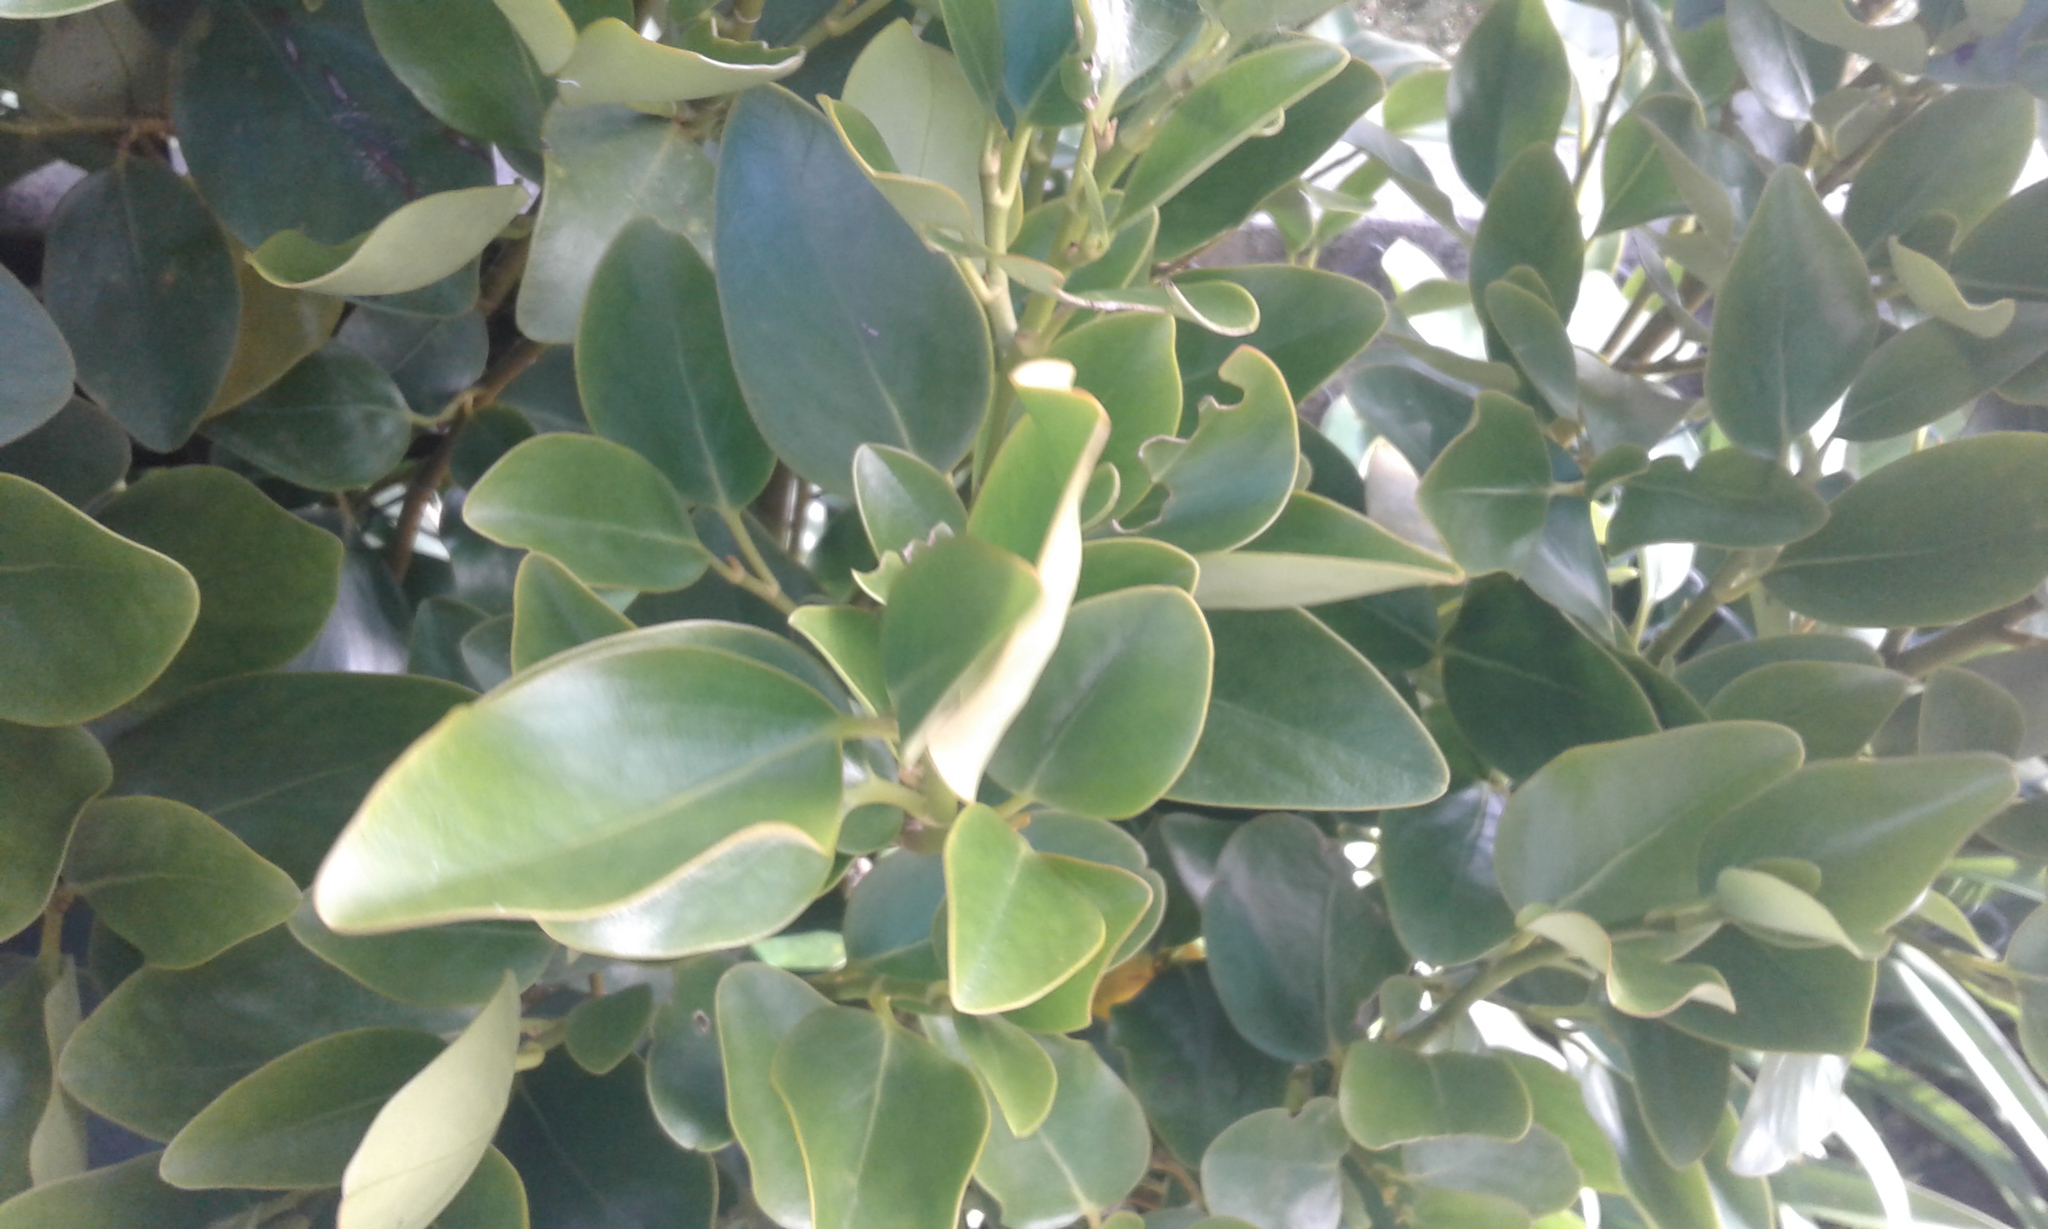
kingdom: Plantae
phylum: Tracheophyta
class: Magnoliopsida
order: Apiales
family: Griseliniaceae
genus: Griselinia
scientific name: Griselinia littoralis
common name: New zealand broadleaf
